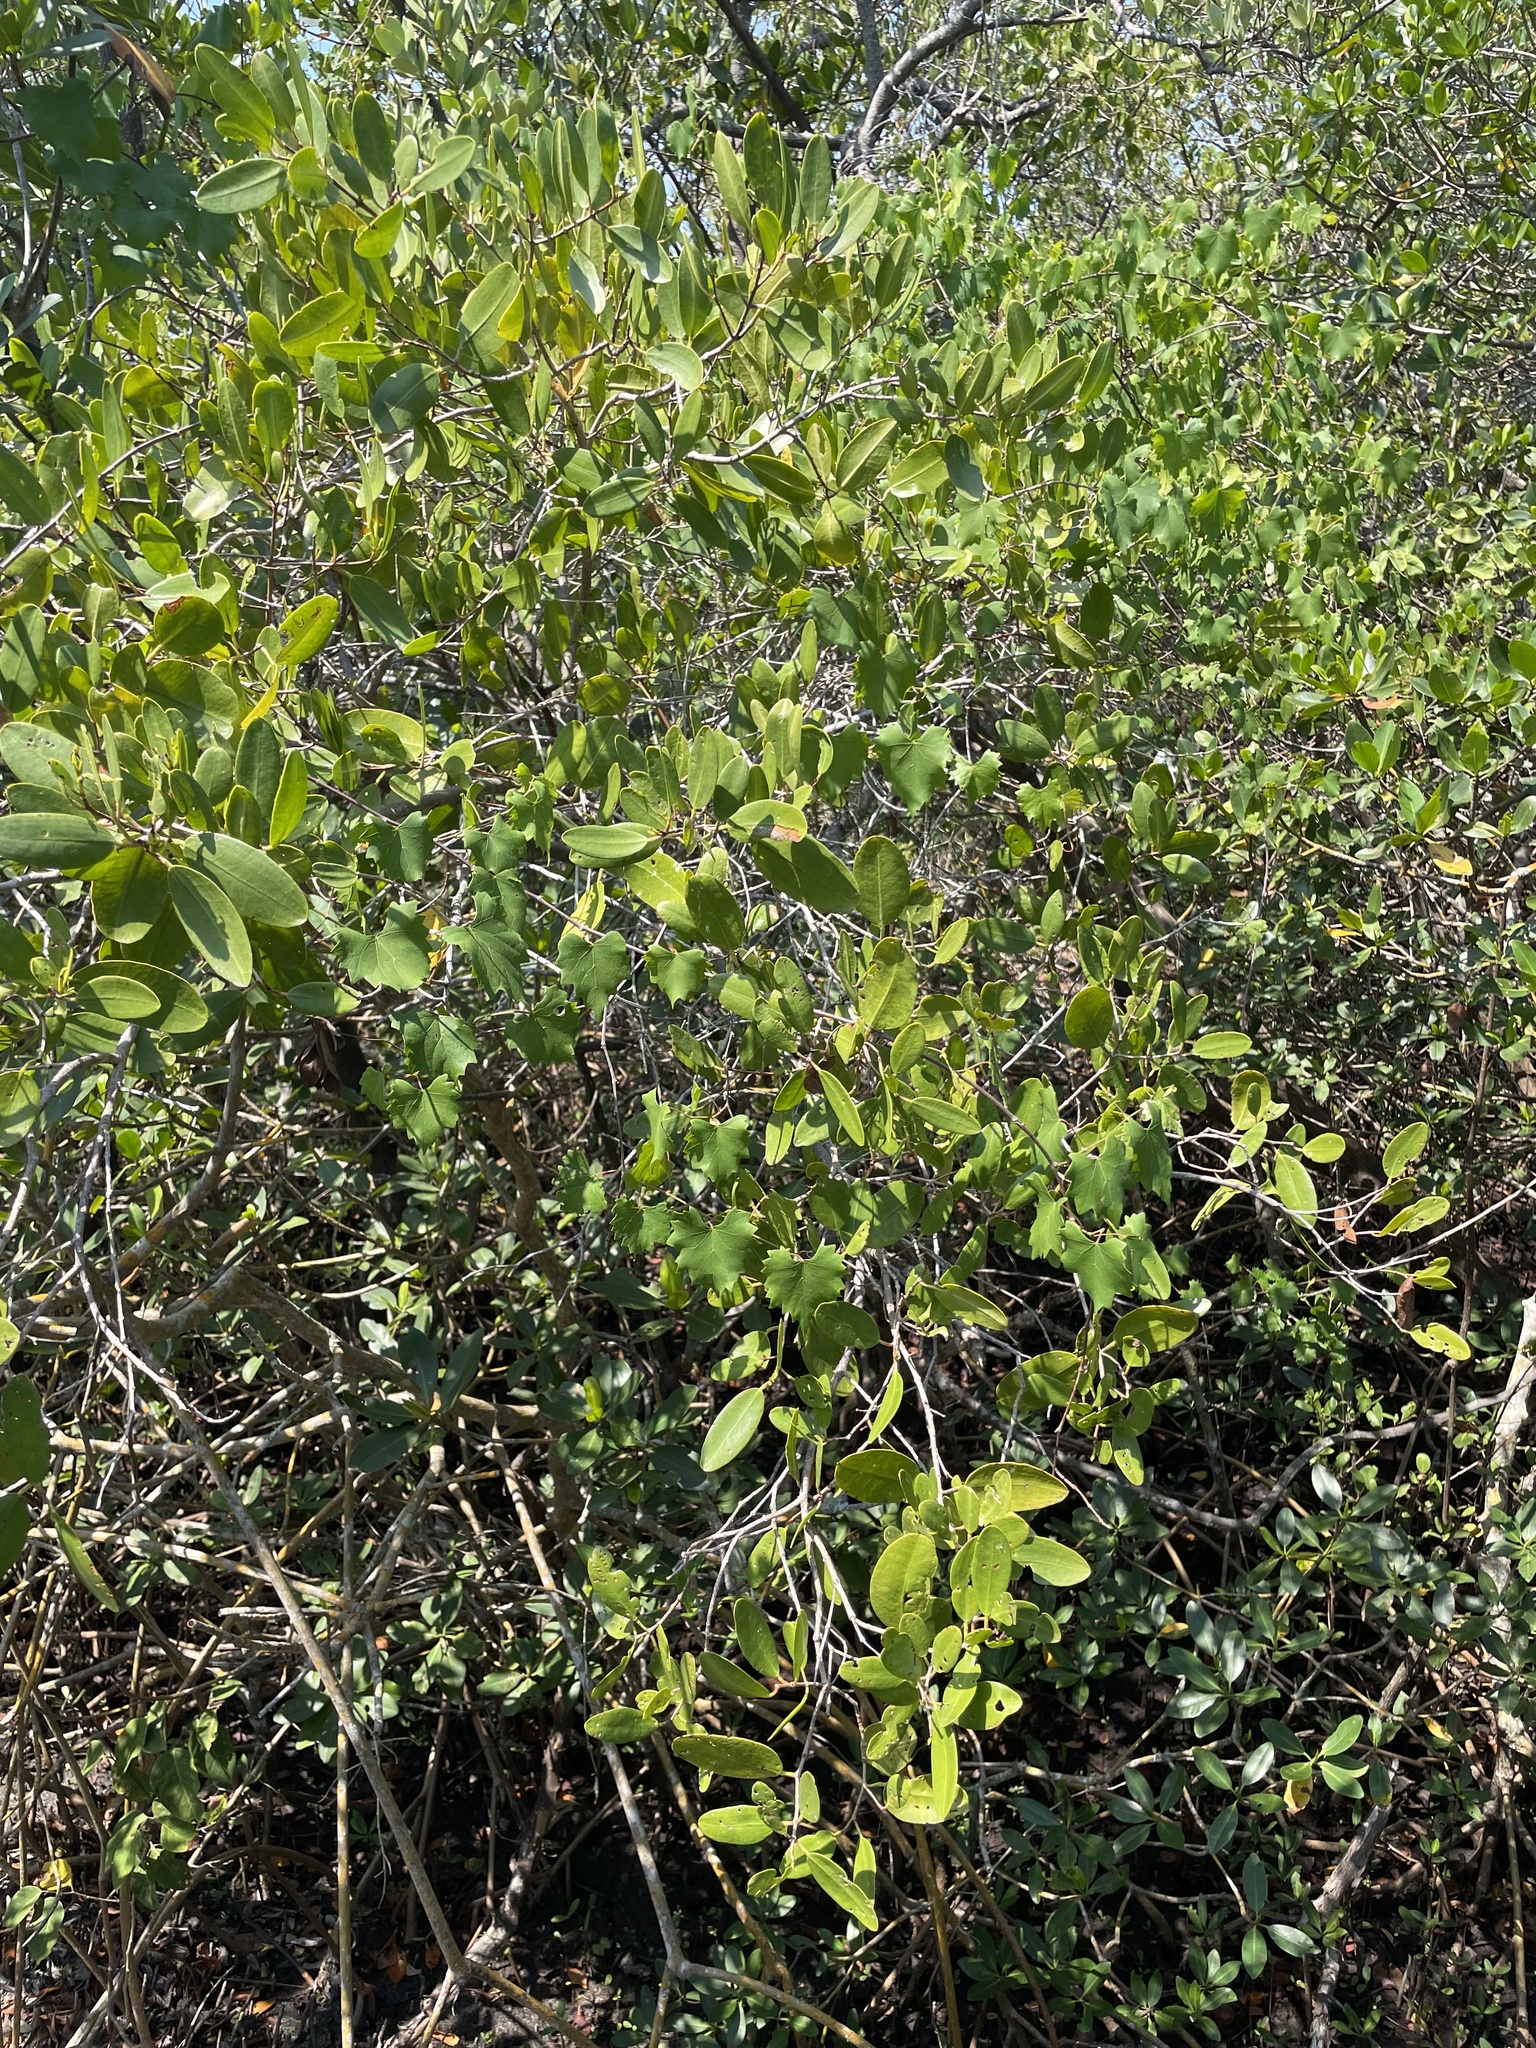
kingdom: Plantae
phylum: Tracheophyta
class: Magnoliopsida
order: Vitales
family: Vitaceae
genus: Vitis
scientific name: Vitis rotundifolia
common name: Muscadine grape
